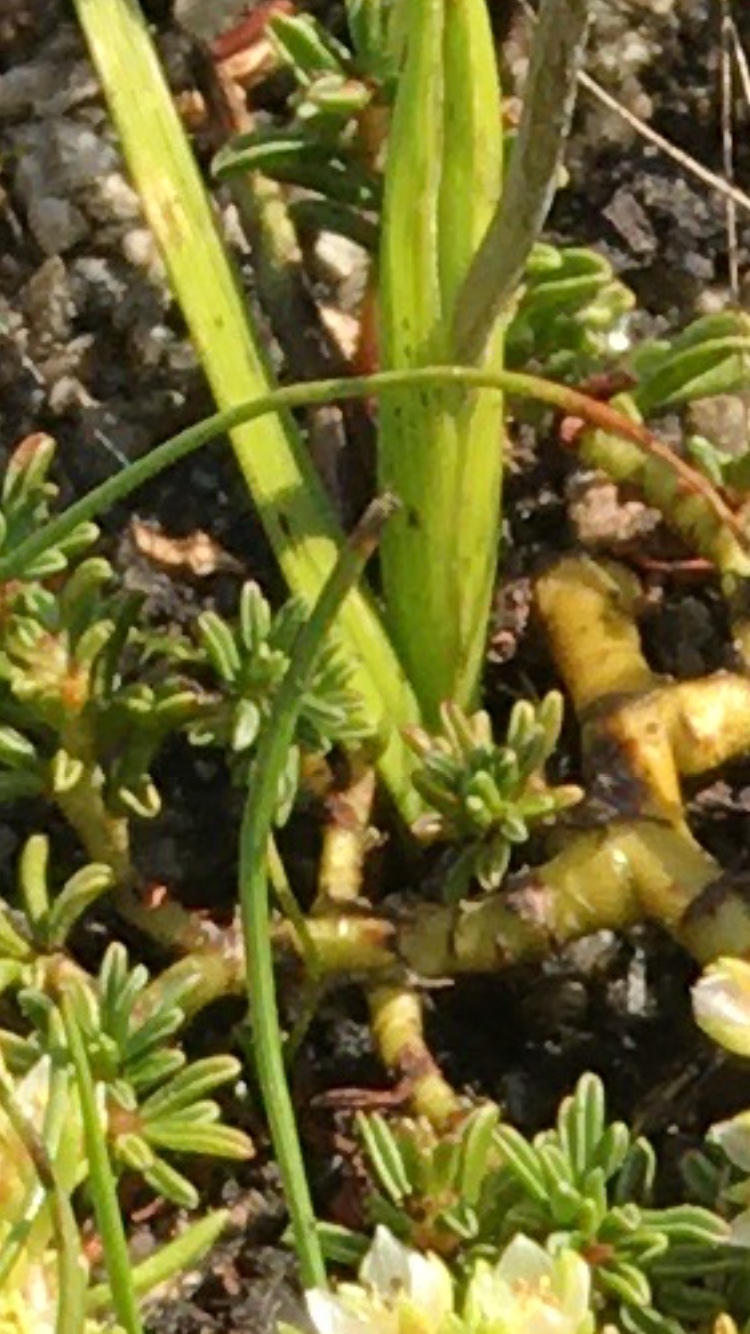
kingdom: Plantae
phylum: Tracheophyta
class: Magnoliopsida
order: Oxalidales
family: Oxalidaceae
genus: Oxalis
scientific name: Oxalis hirta
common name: Tropical woodsorrel
